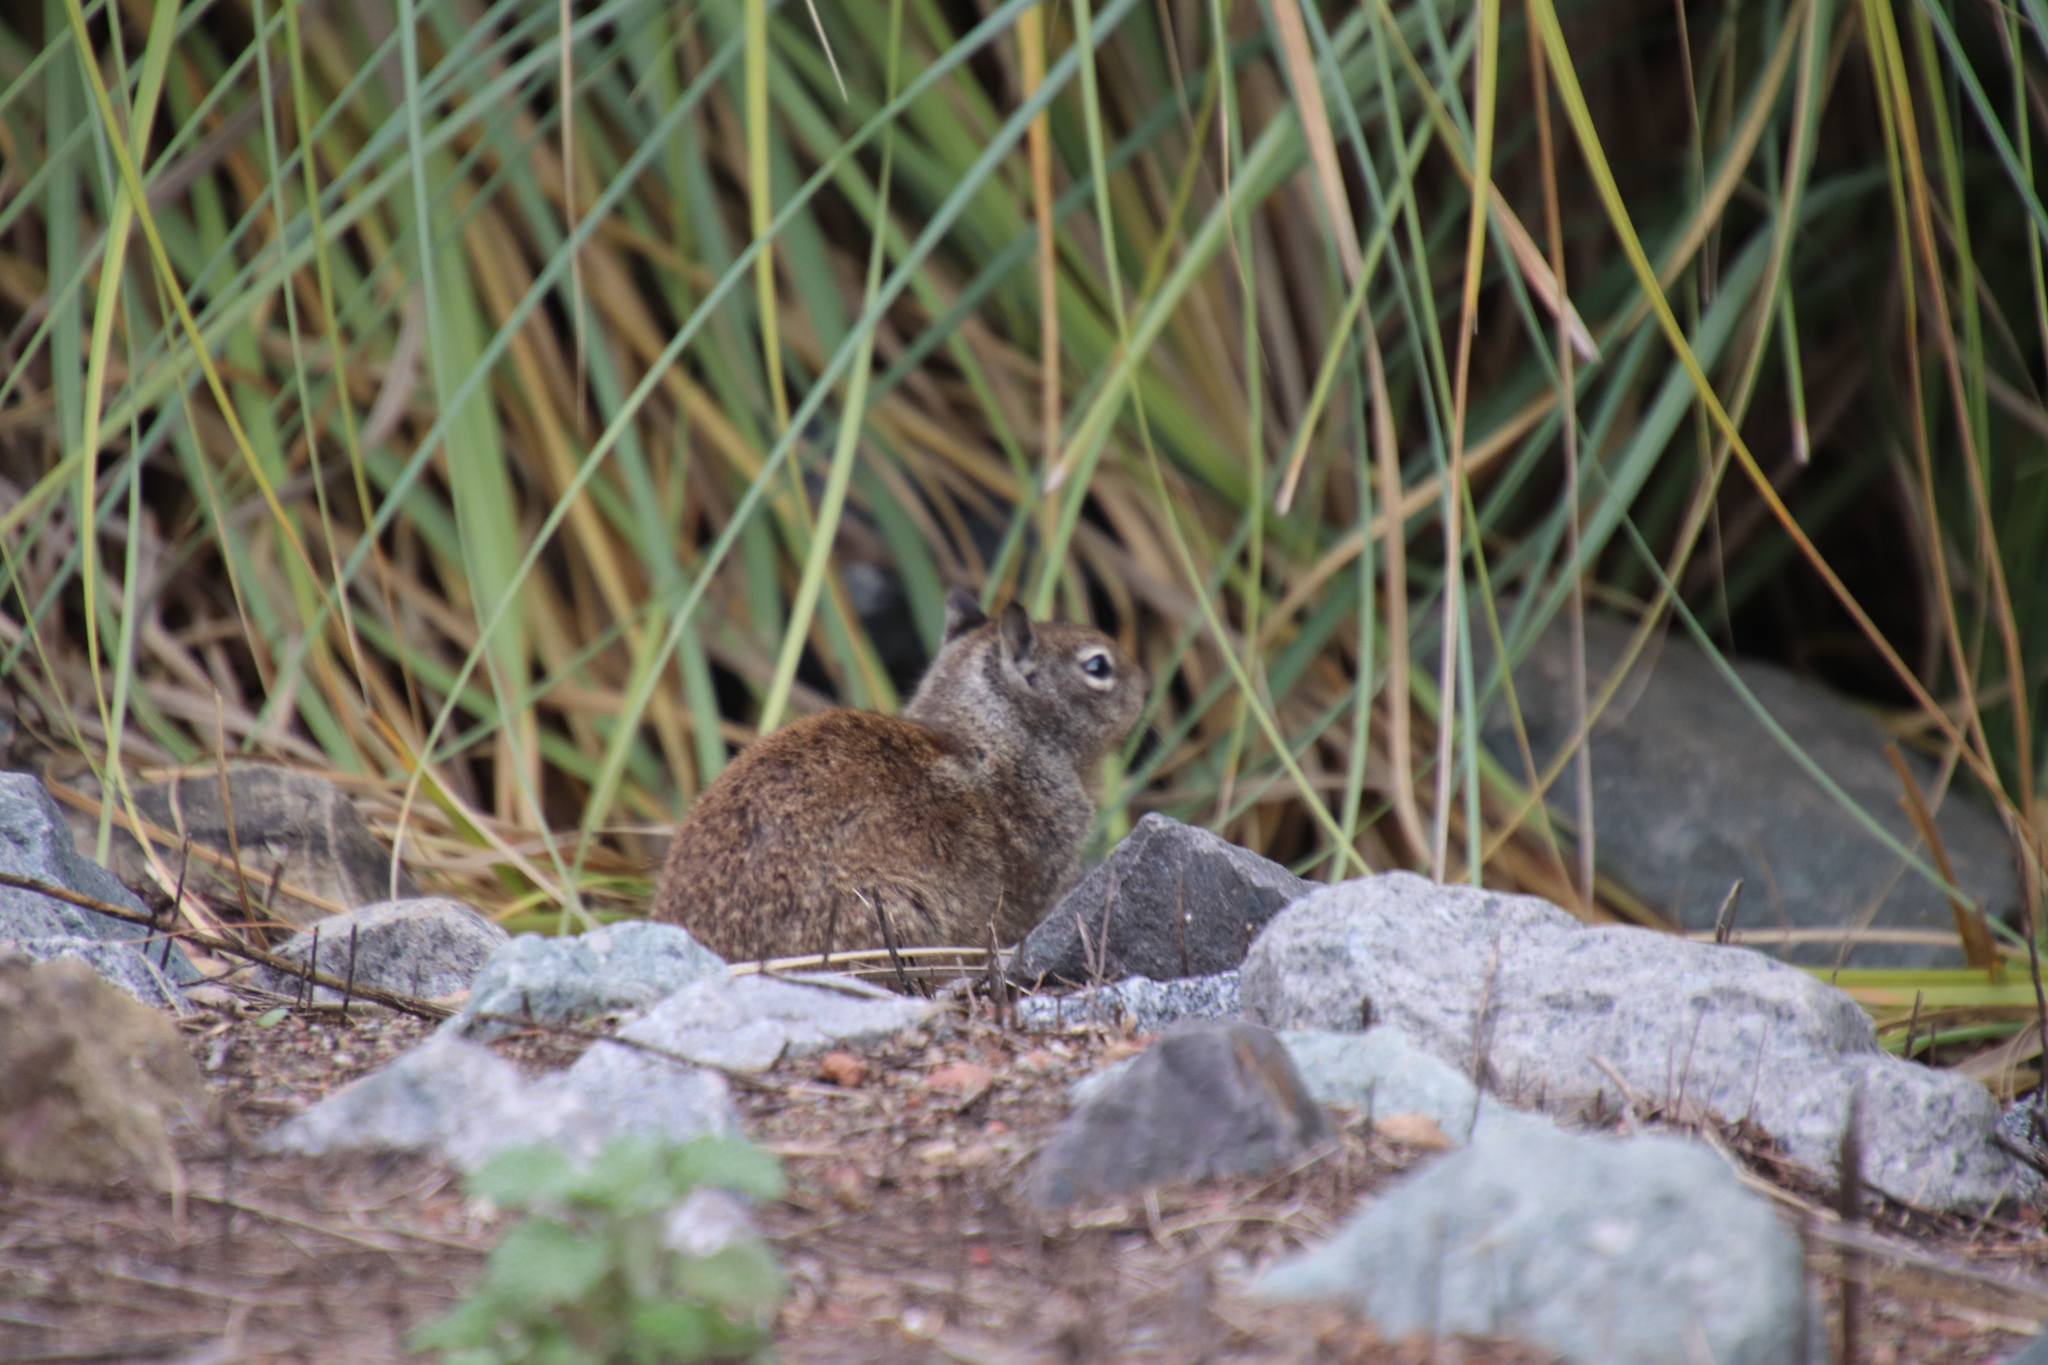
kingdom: Animalia
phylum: Chordata
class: Mammalia
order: Rodentia
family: Sciuridae
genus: Otospermophilus
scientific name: Otospermophilus beecheyi
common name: California ground squirrel
